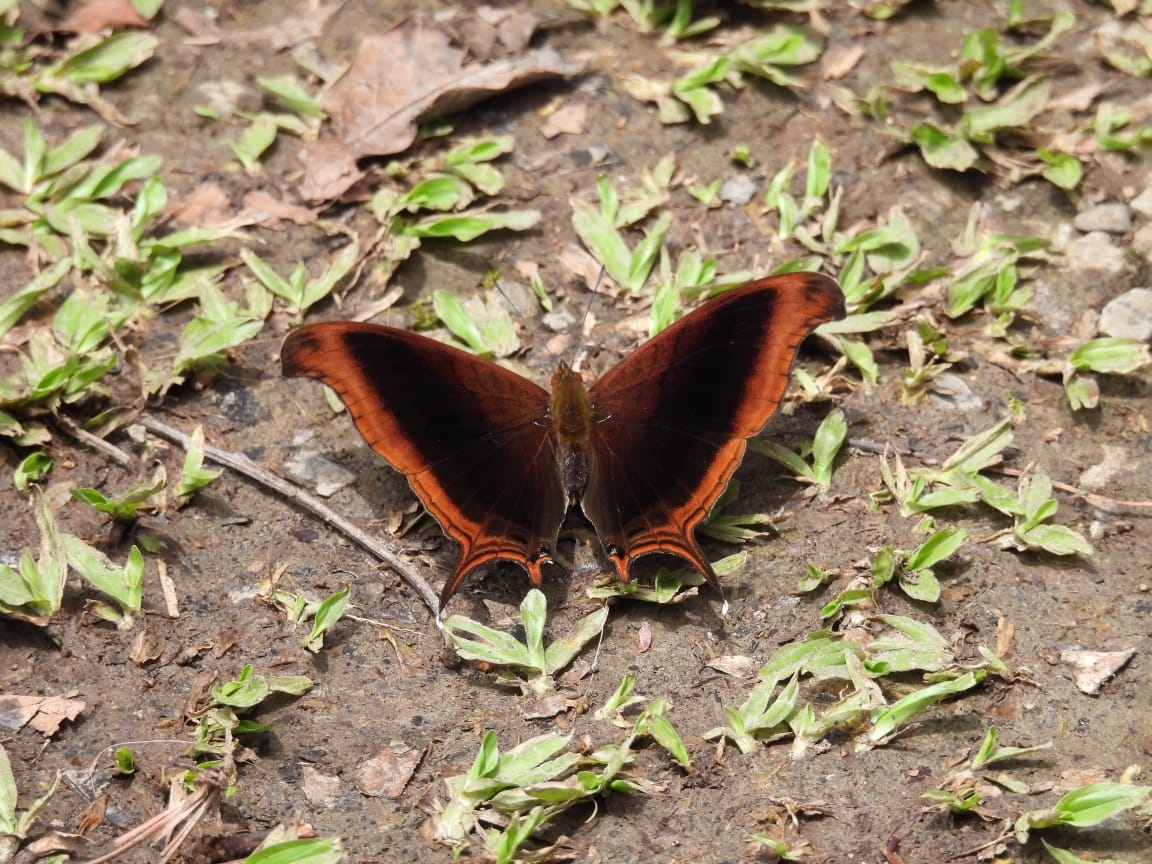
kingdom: Animalia
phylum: Arthropoda
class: Insecta
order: Lepidoptera
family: Nymphalidae
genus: Marpesia
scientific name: Marpesia zerynthia
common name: Waiter daggerwing
